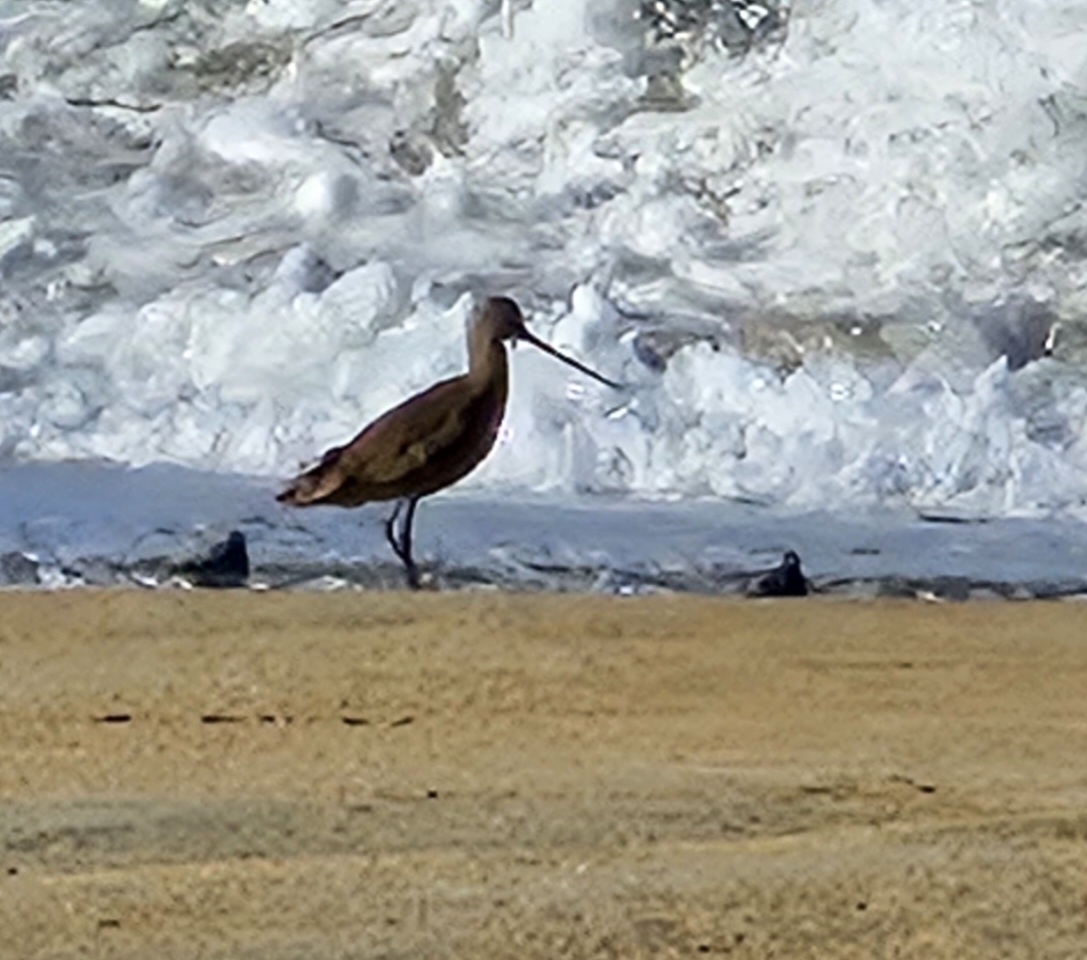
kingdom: Animalia
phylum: Chordata
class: Aves
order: Charadriiformes
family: Scolopacidae
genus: Limosa
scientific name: Limosa fedoa
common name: Marbled godwit
